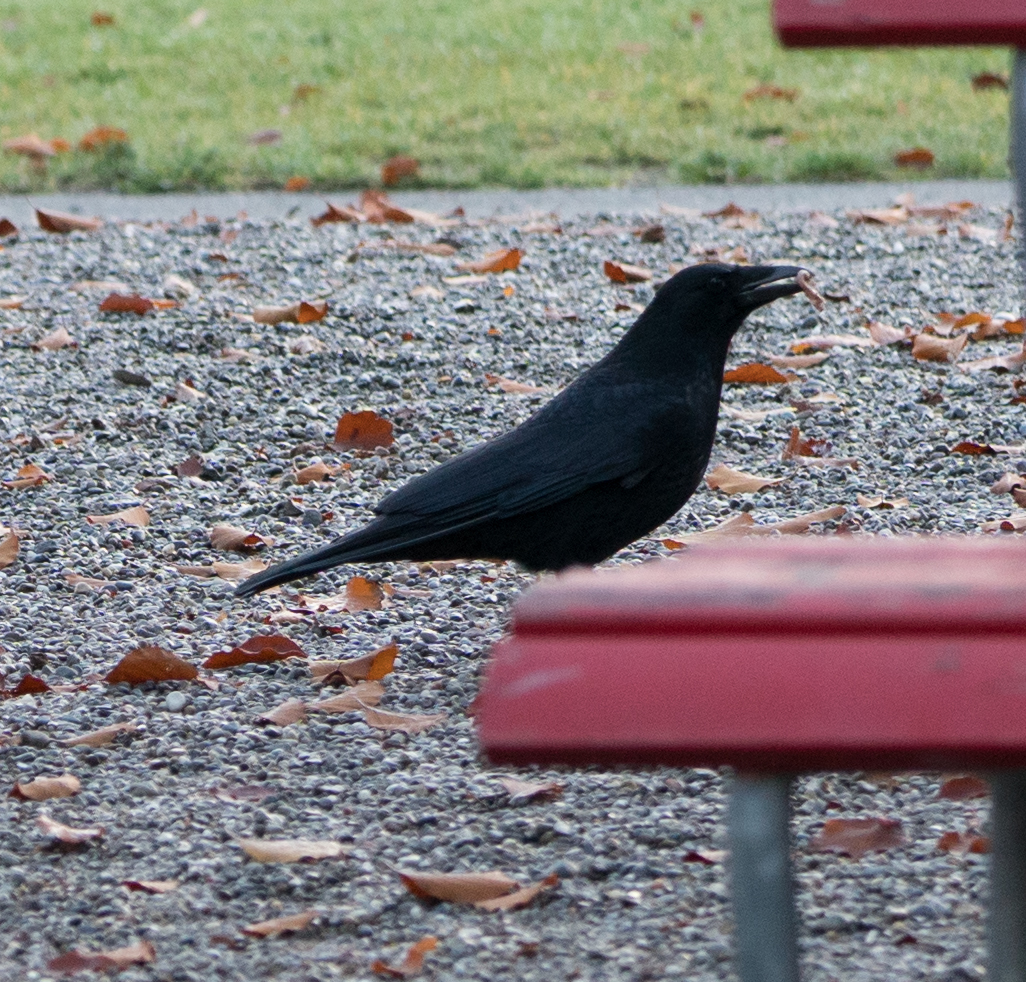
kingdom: Animalia
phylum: Chordata
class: Aves
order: Passeriformes
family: Corvidae
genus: Corvus
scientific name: Corvus corone
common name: Carrion crow
